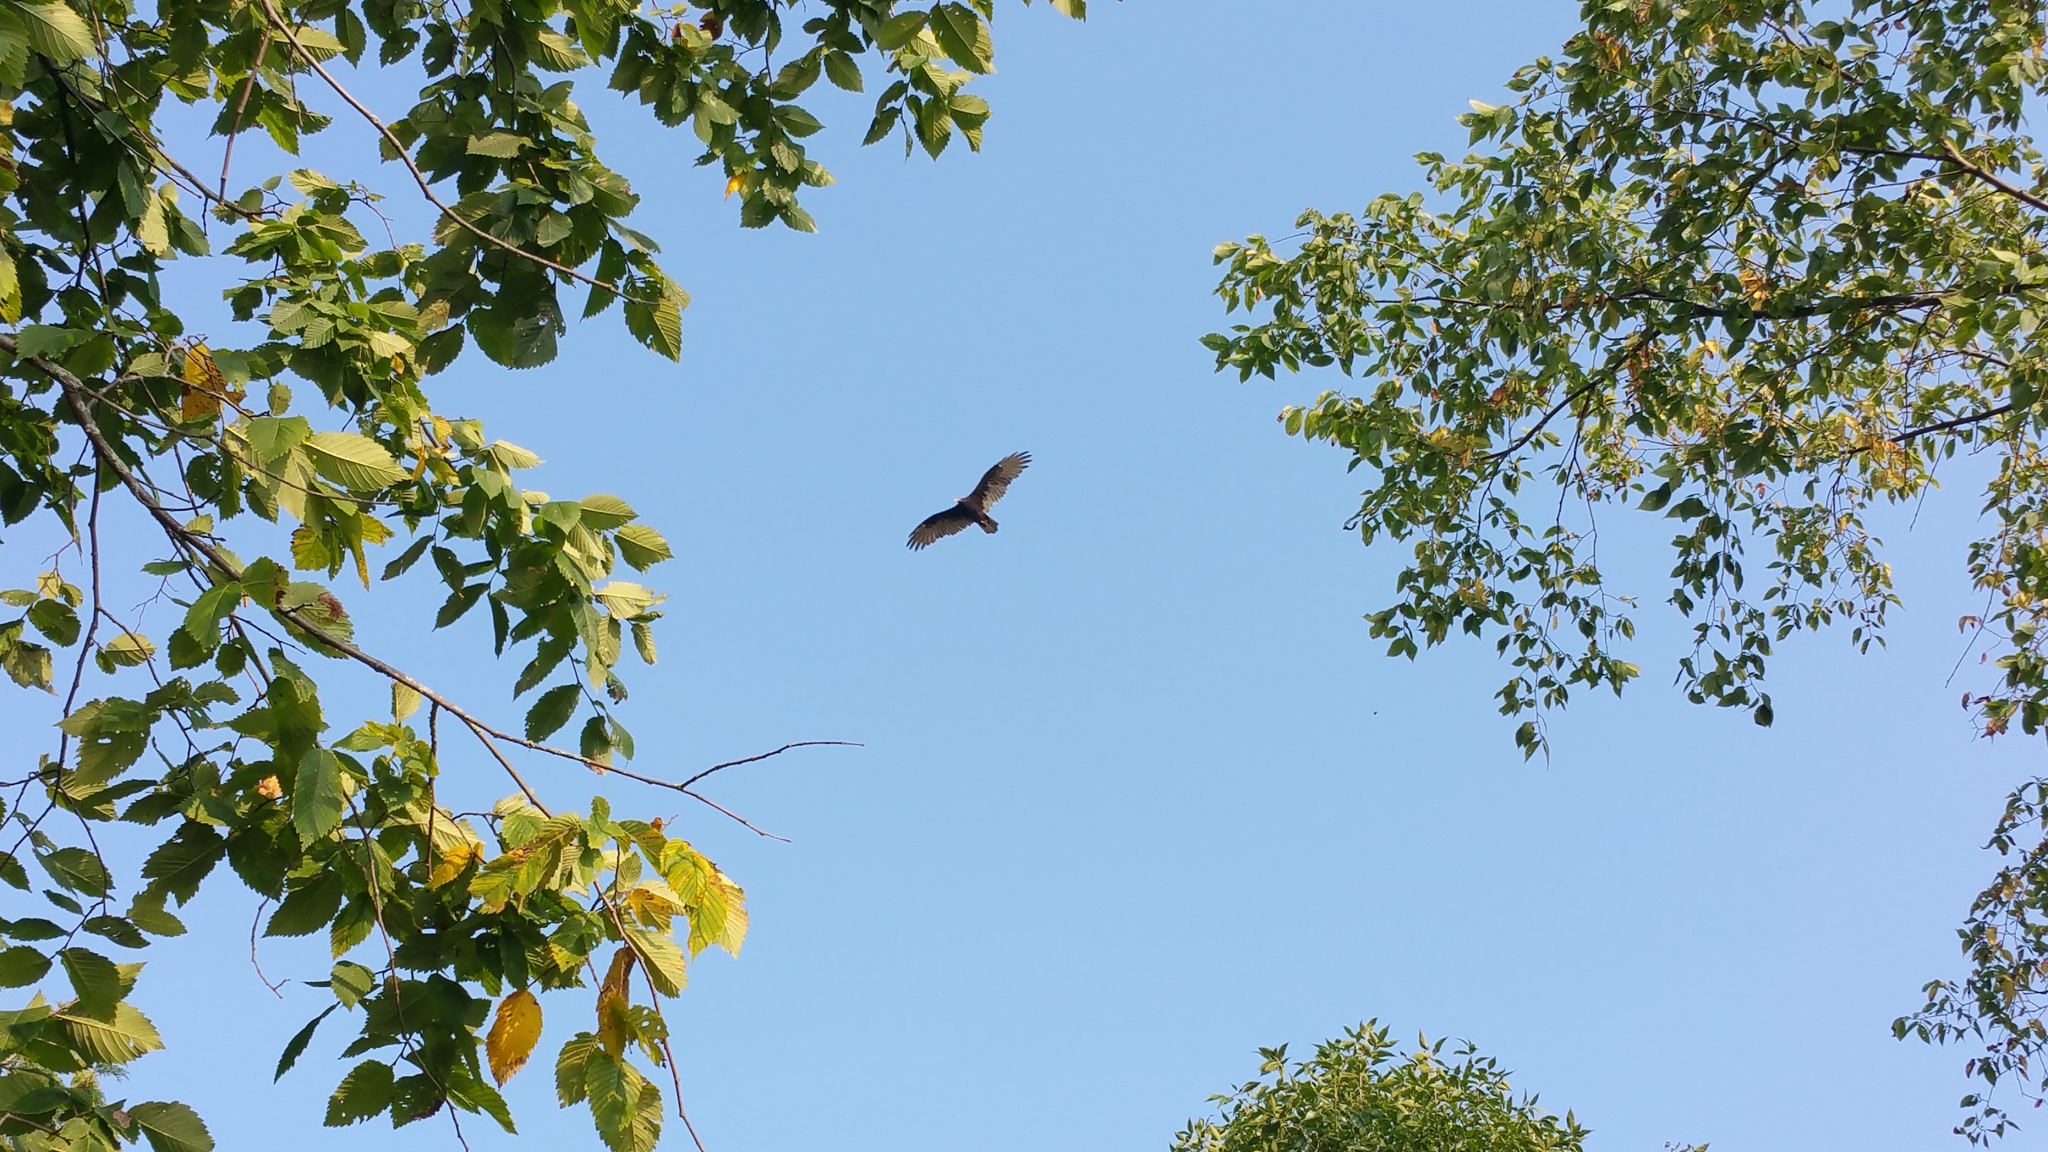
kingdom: Animalia
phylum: Chordata
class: Aves
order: Accipitriformes
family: Cathartidae
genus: Cathartes
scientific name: Cathartes aura
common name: Turkey vulture
